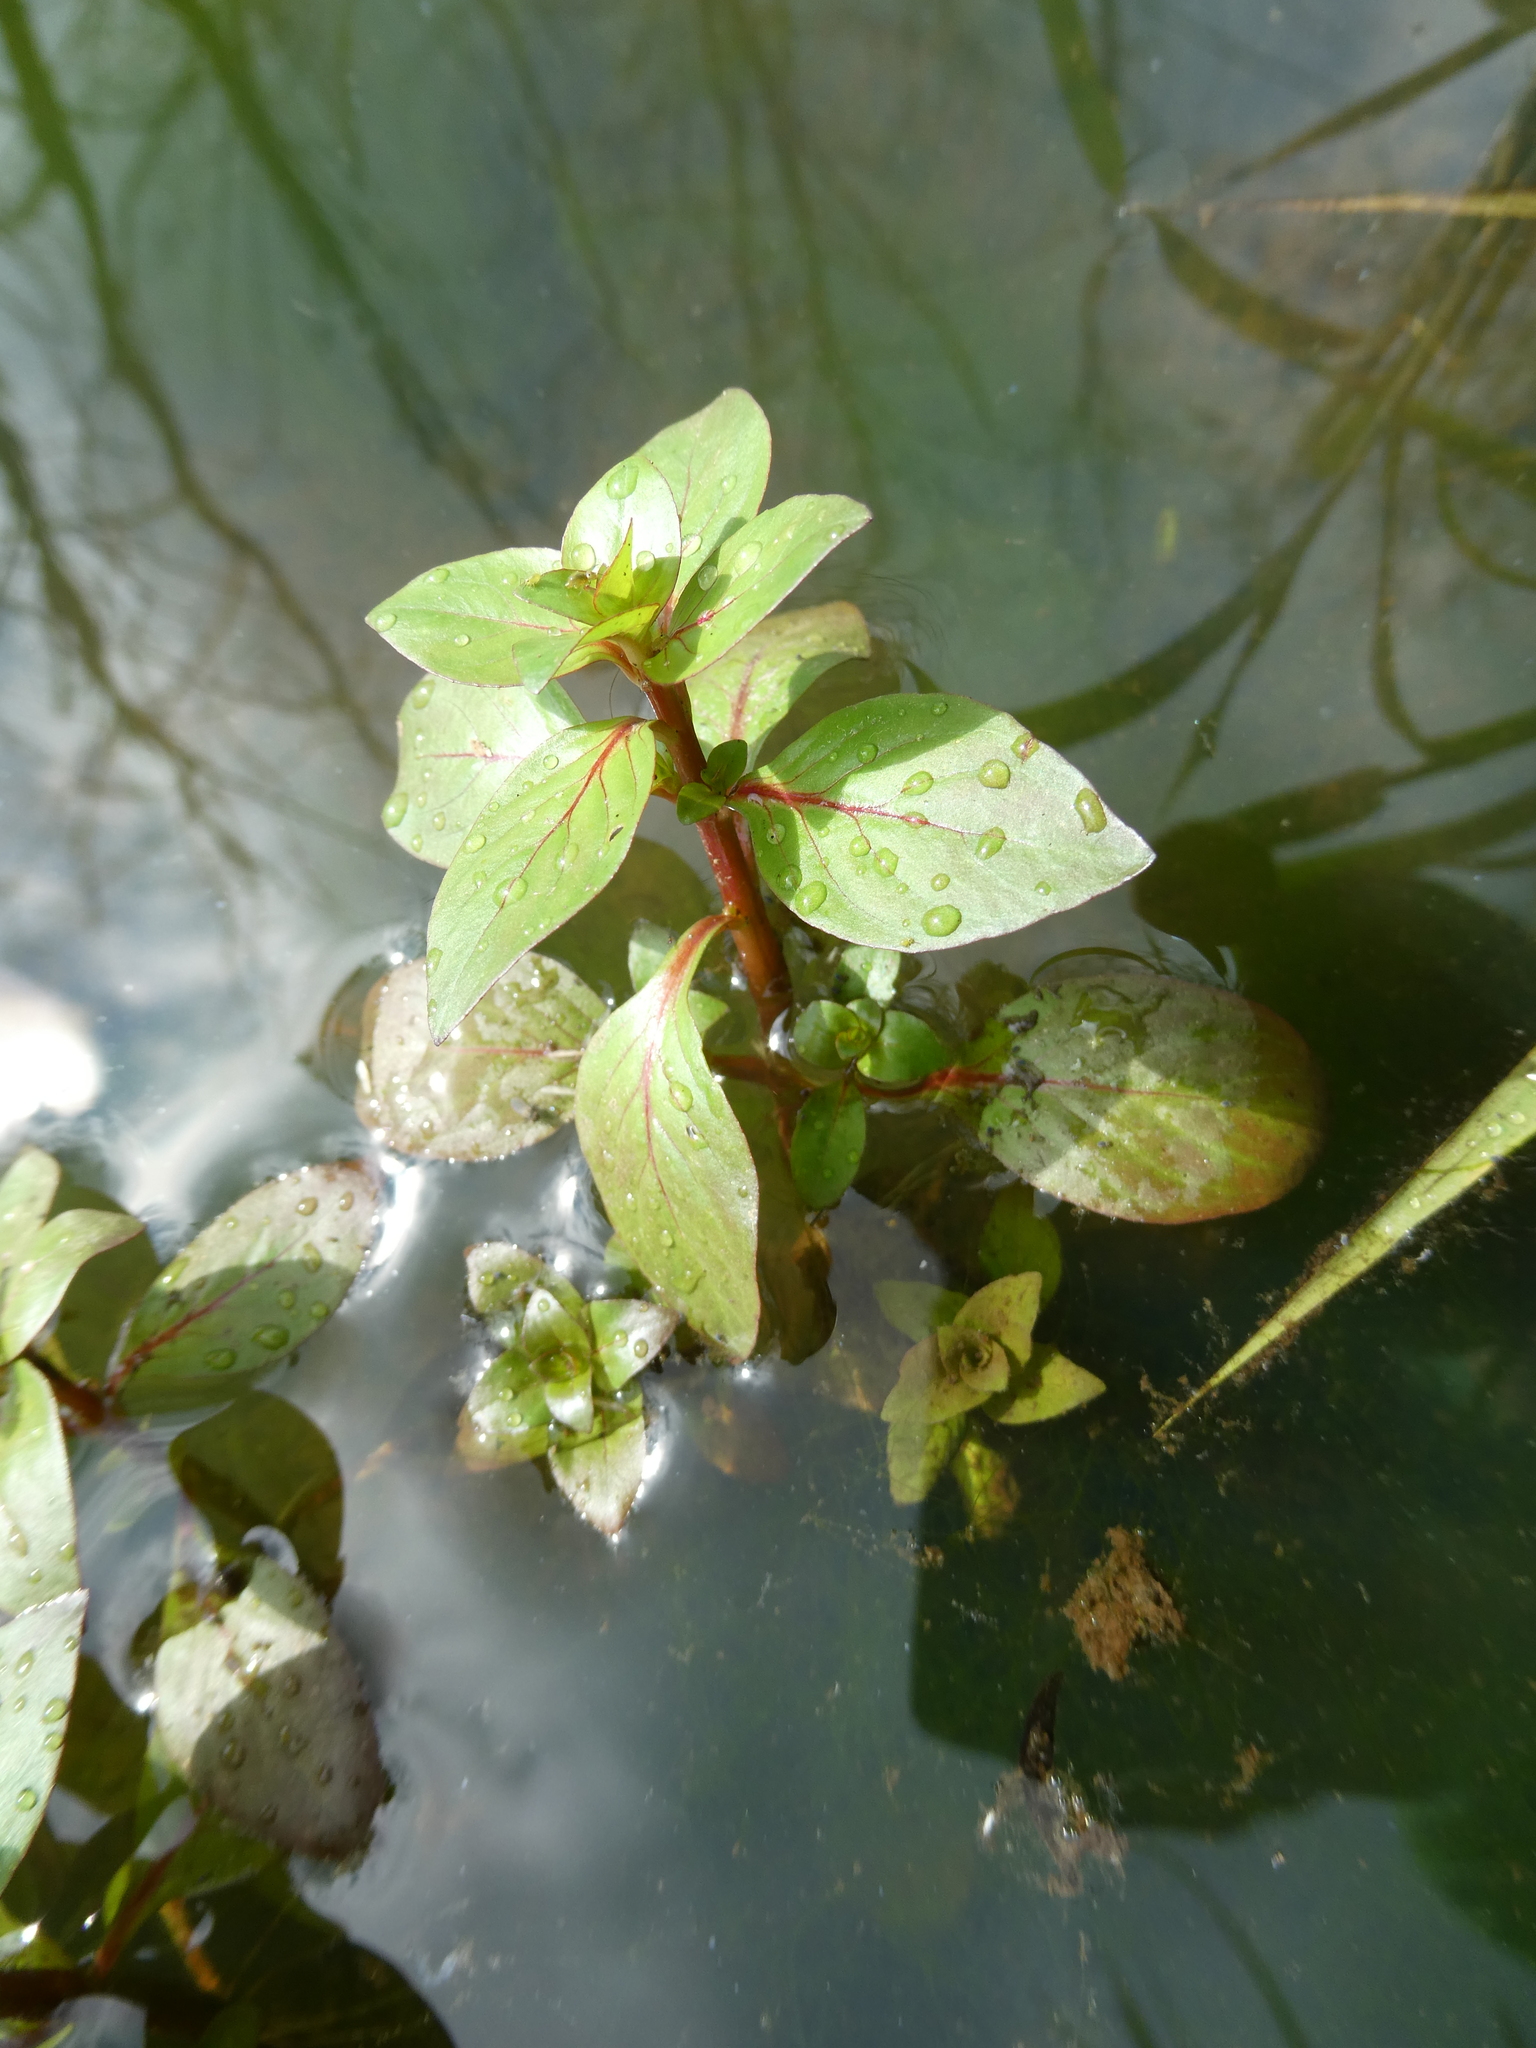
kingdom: Plantae
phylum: Tracheophyta
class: Magnoliopsida
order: Myrtales
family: Onagraceae
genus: Ludwigia
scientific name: Ludwigia palustris
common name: Hampshire-purslane
